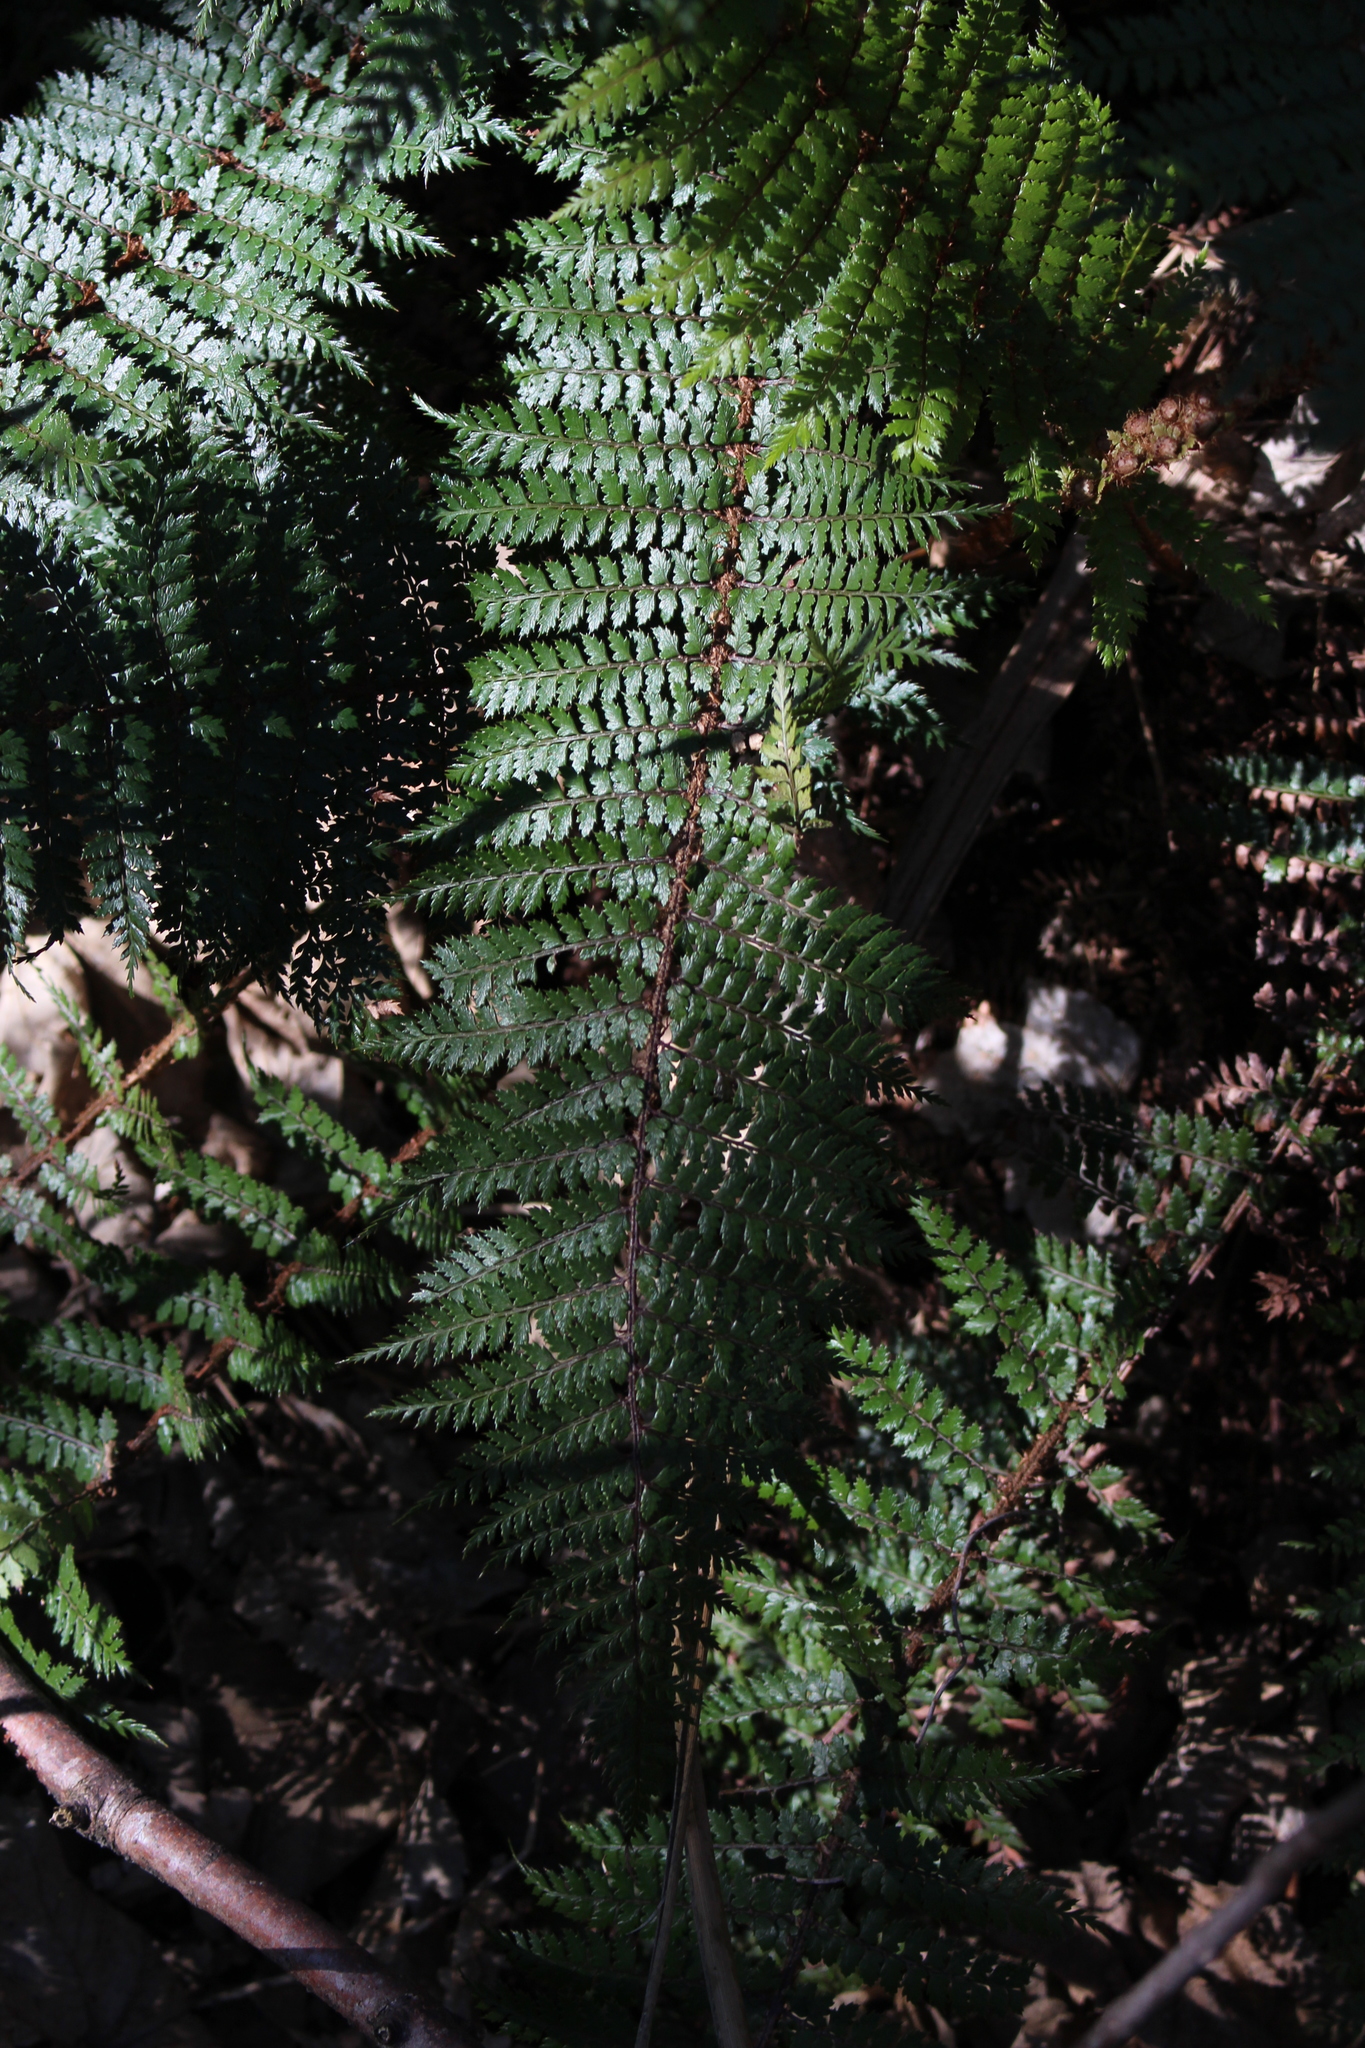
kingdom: Plantae
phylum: Tracheophyta
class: Polypodiopsida
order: Polypodiales
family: Dryopteridaceae
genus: Polystichum
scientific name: Polystichum vestitum
